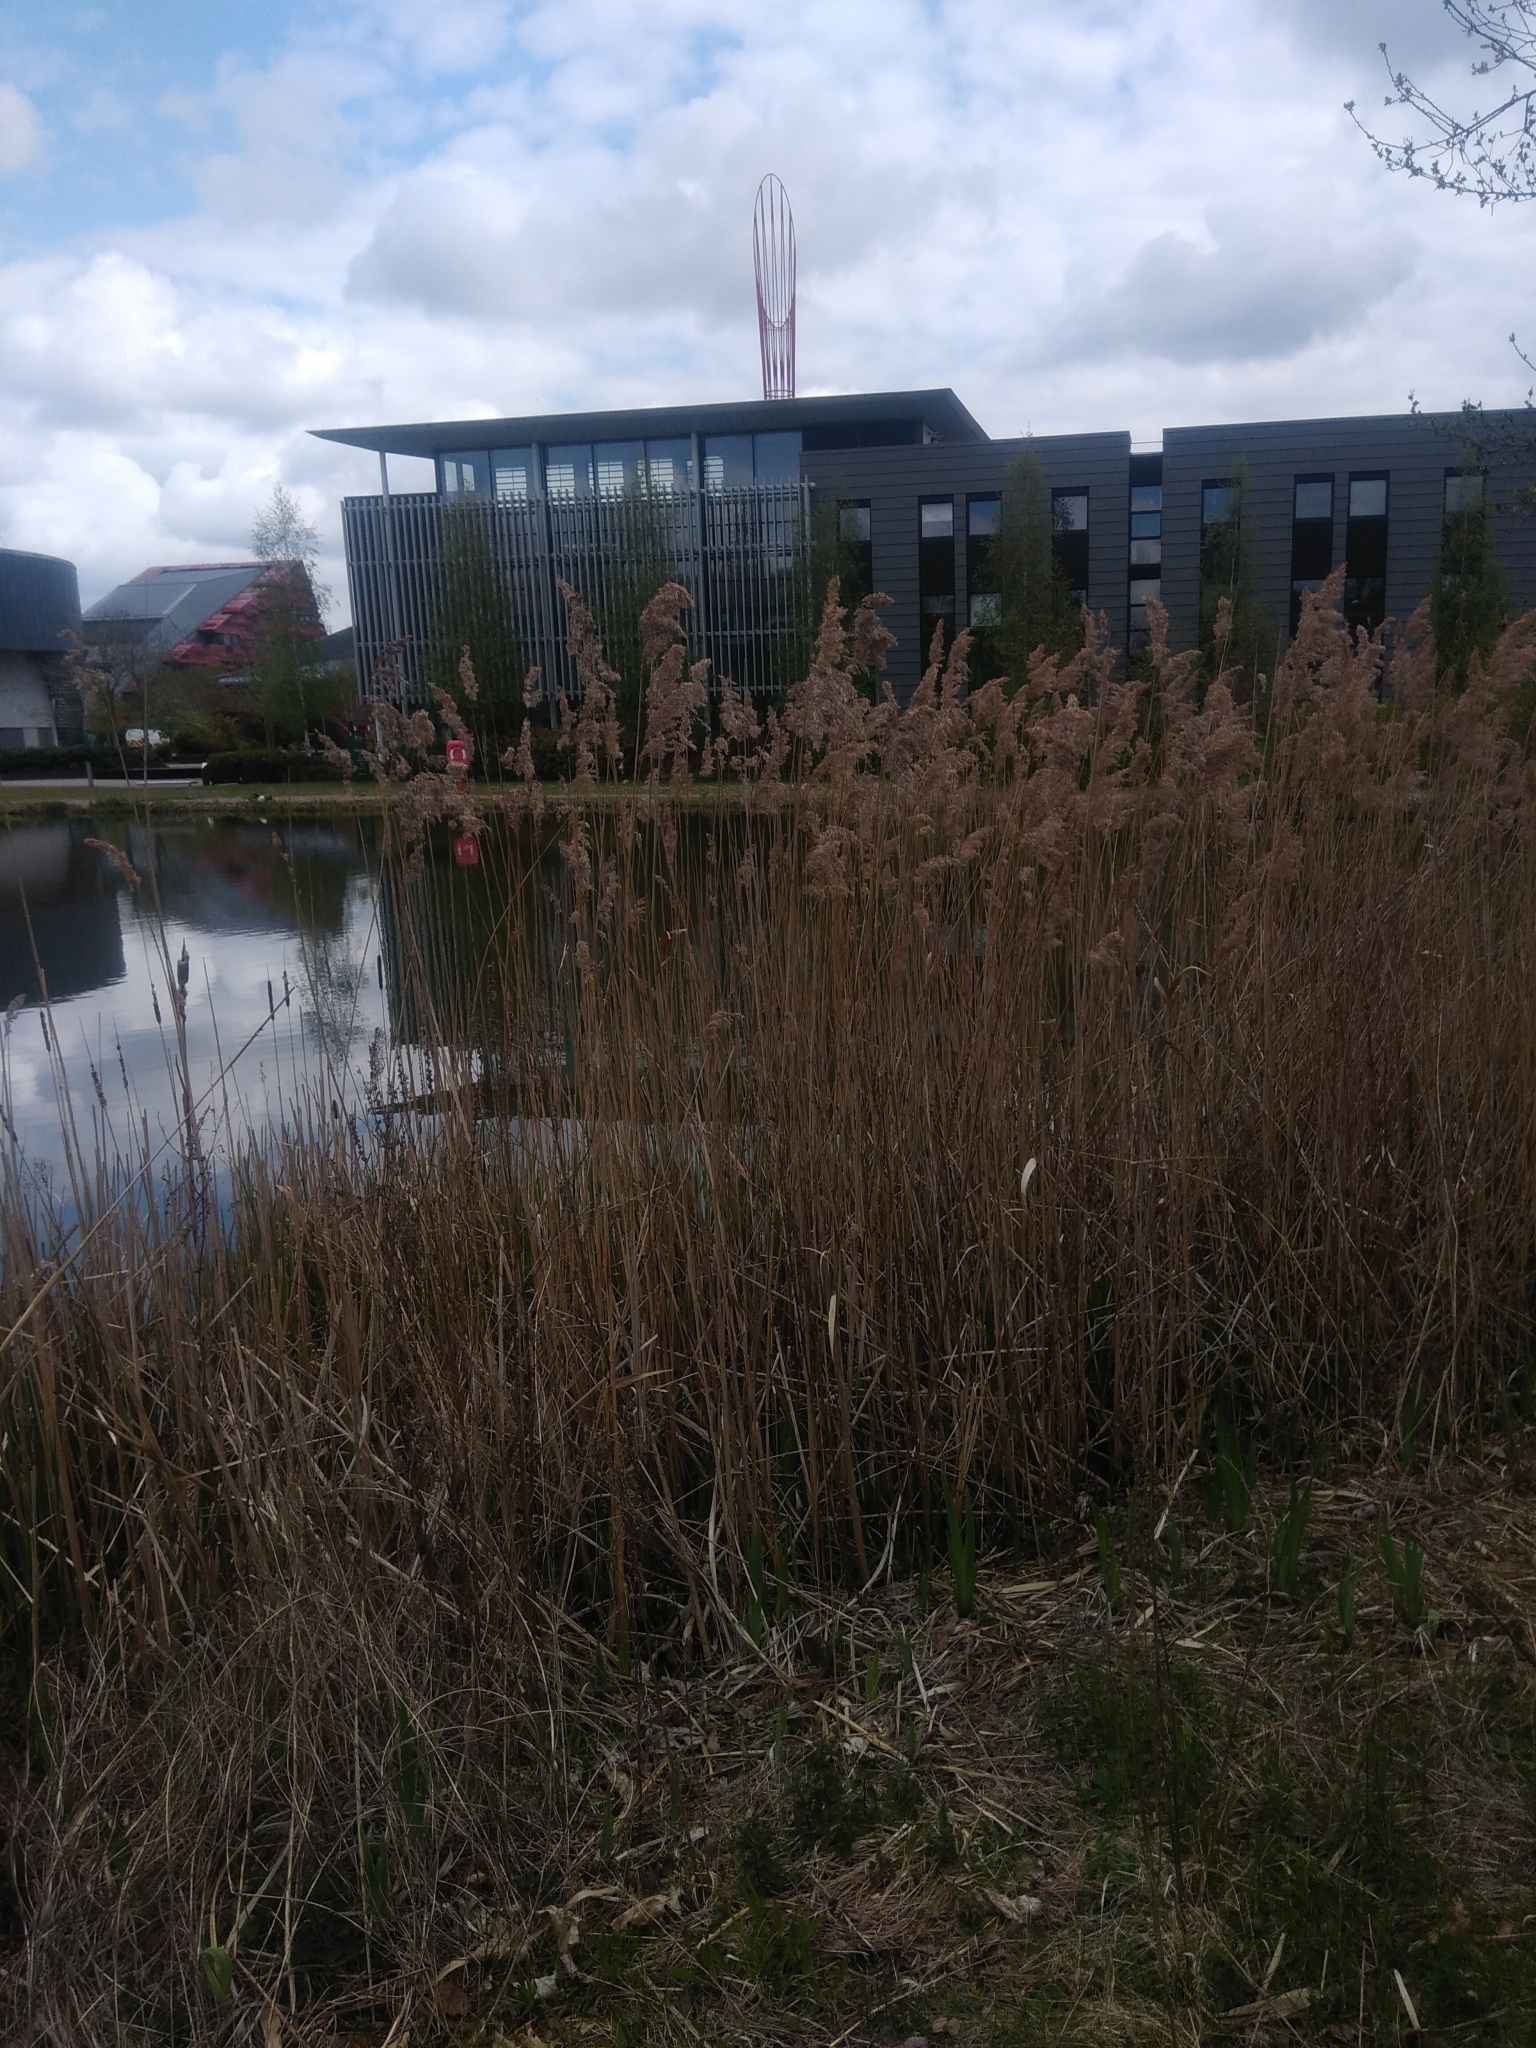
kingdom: Plantae
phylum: Tracheophyta
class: Liliopsida
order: Poales
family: Poaceae
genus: Phragmites
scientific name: Phragmites australis
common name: Common reed
